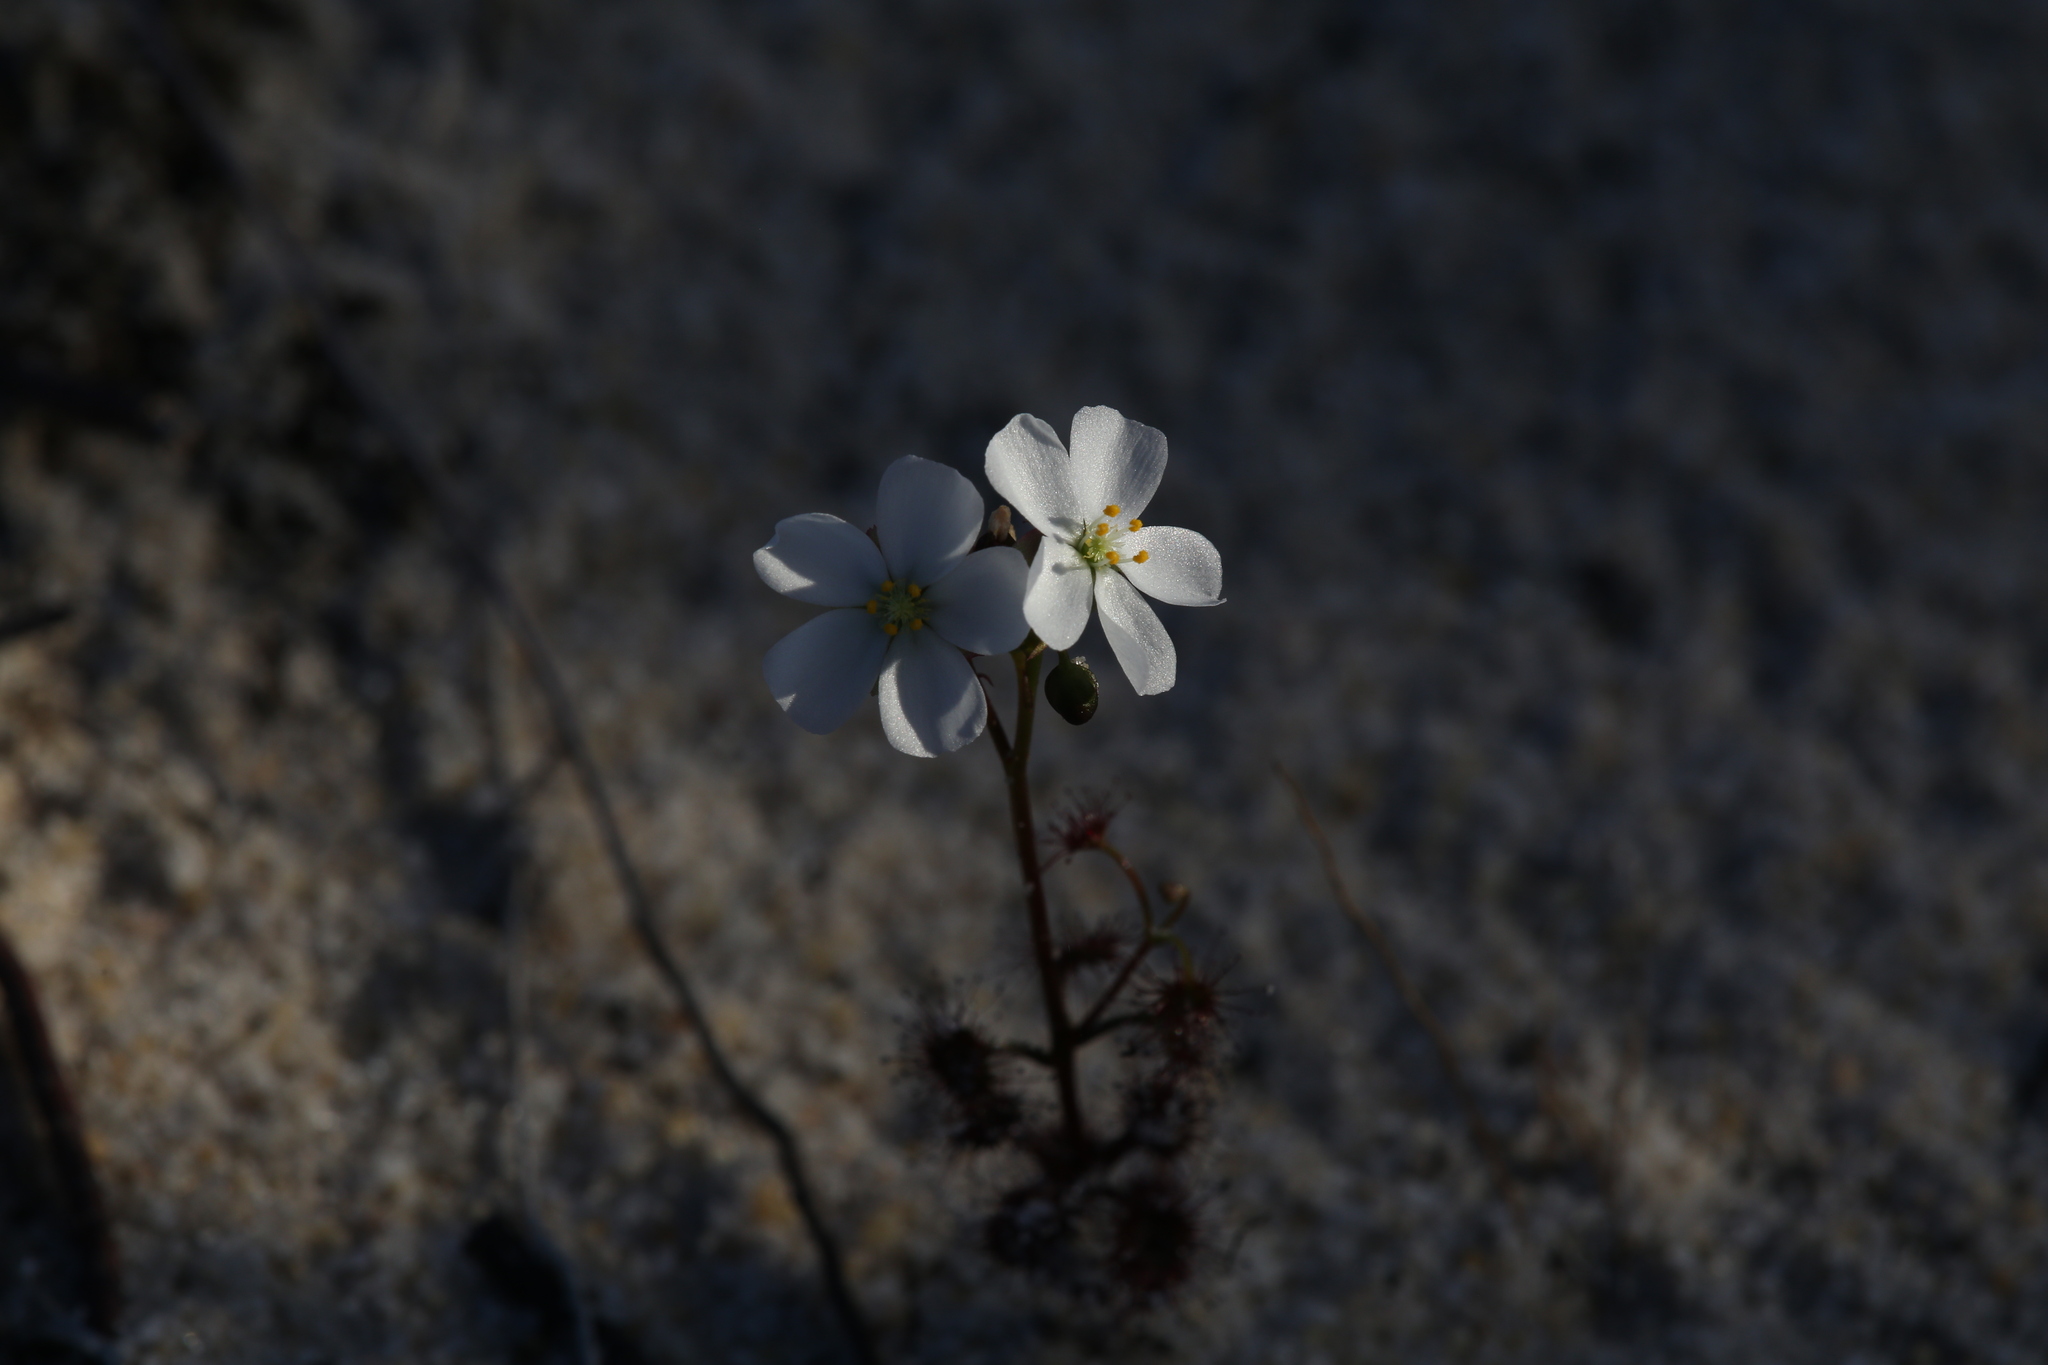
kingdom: Plantae
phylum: Tracheophyta
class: Magnoliopsida
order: Caryophyllales
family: Droseraceae
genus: Drosera
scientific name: Drosera stolonifera
